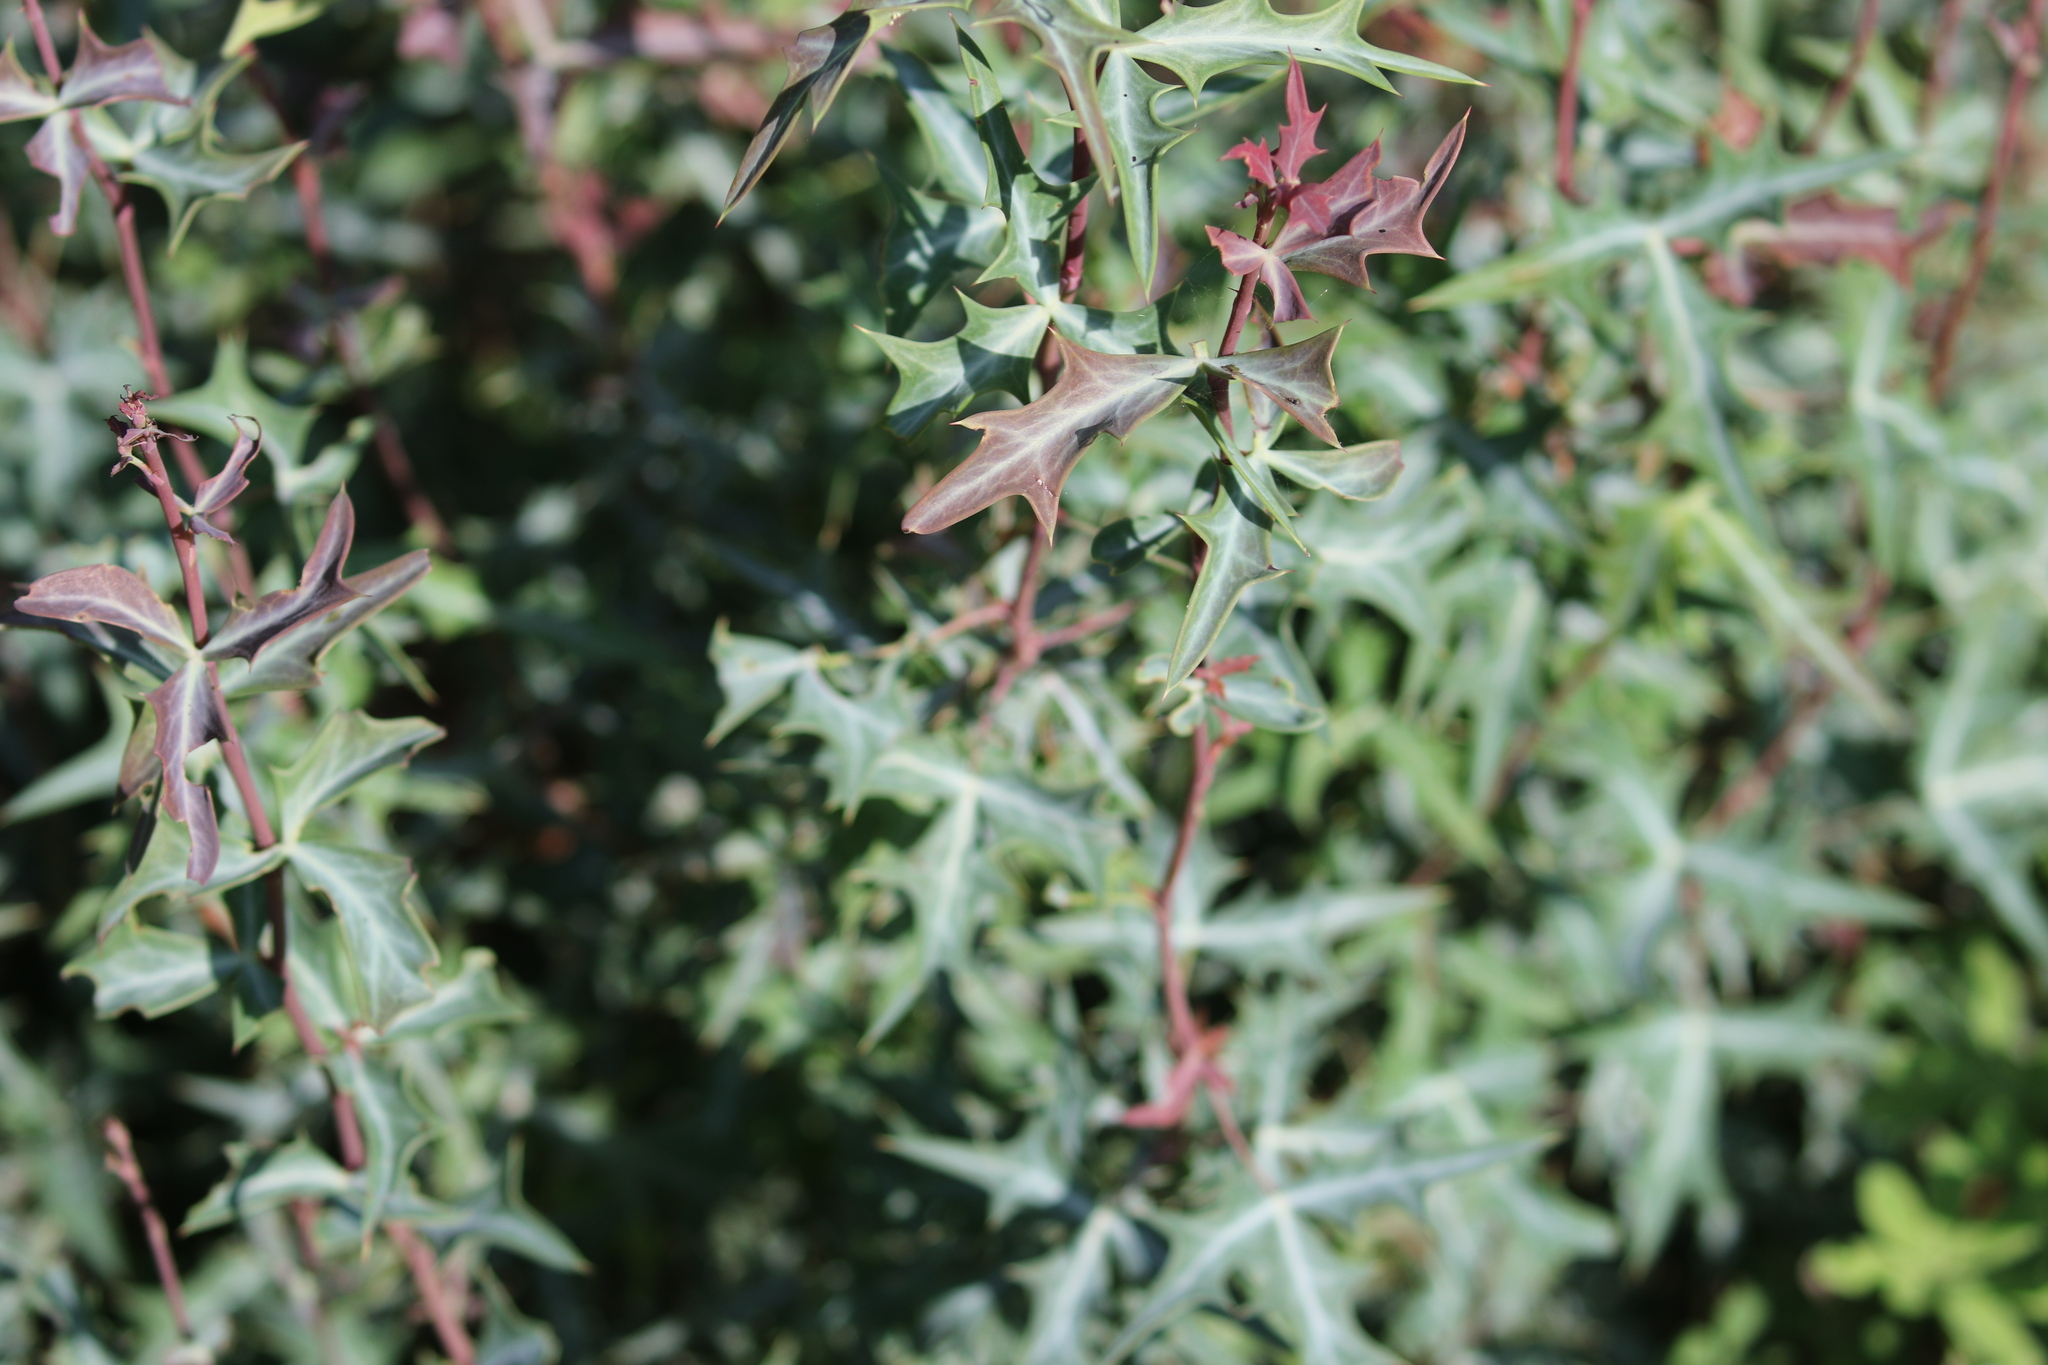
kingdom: Plantae
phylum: Tracheophyta
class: Magnoliopsida
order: Ranunculales
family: Berberidaceae
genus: Alloberberis
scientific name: Alloberberis trifoliolata
